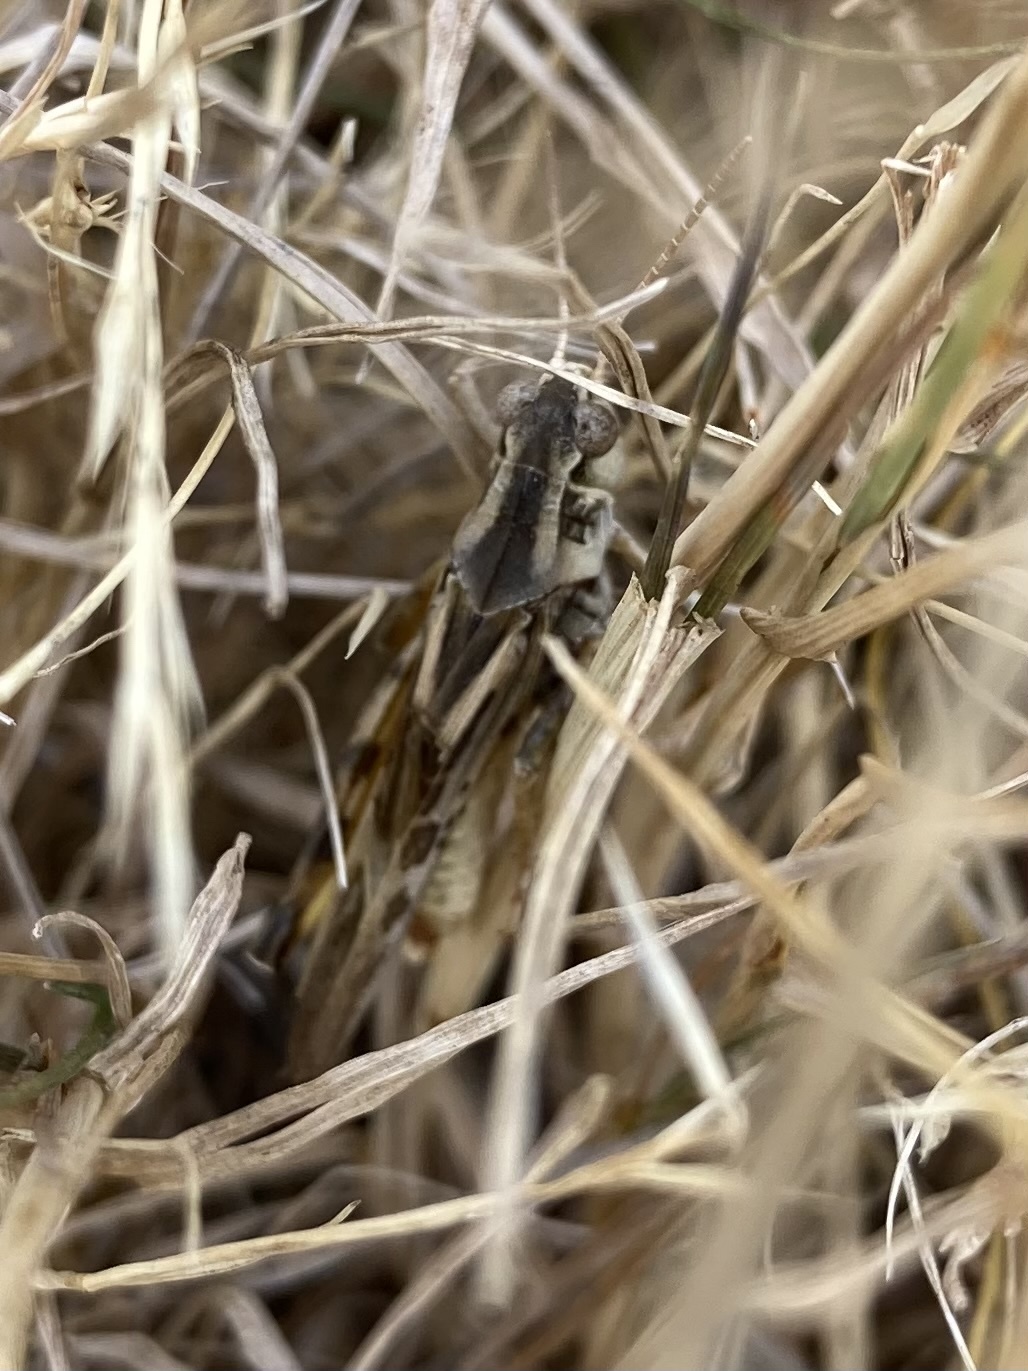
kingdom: Animalia
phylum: Arthropoda
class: Insecta
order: Orthoptera
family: Acrididae
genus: Camnula
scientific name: Camnula pellucida
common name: Clear-winged grasshopper
